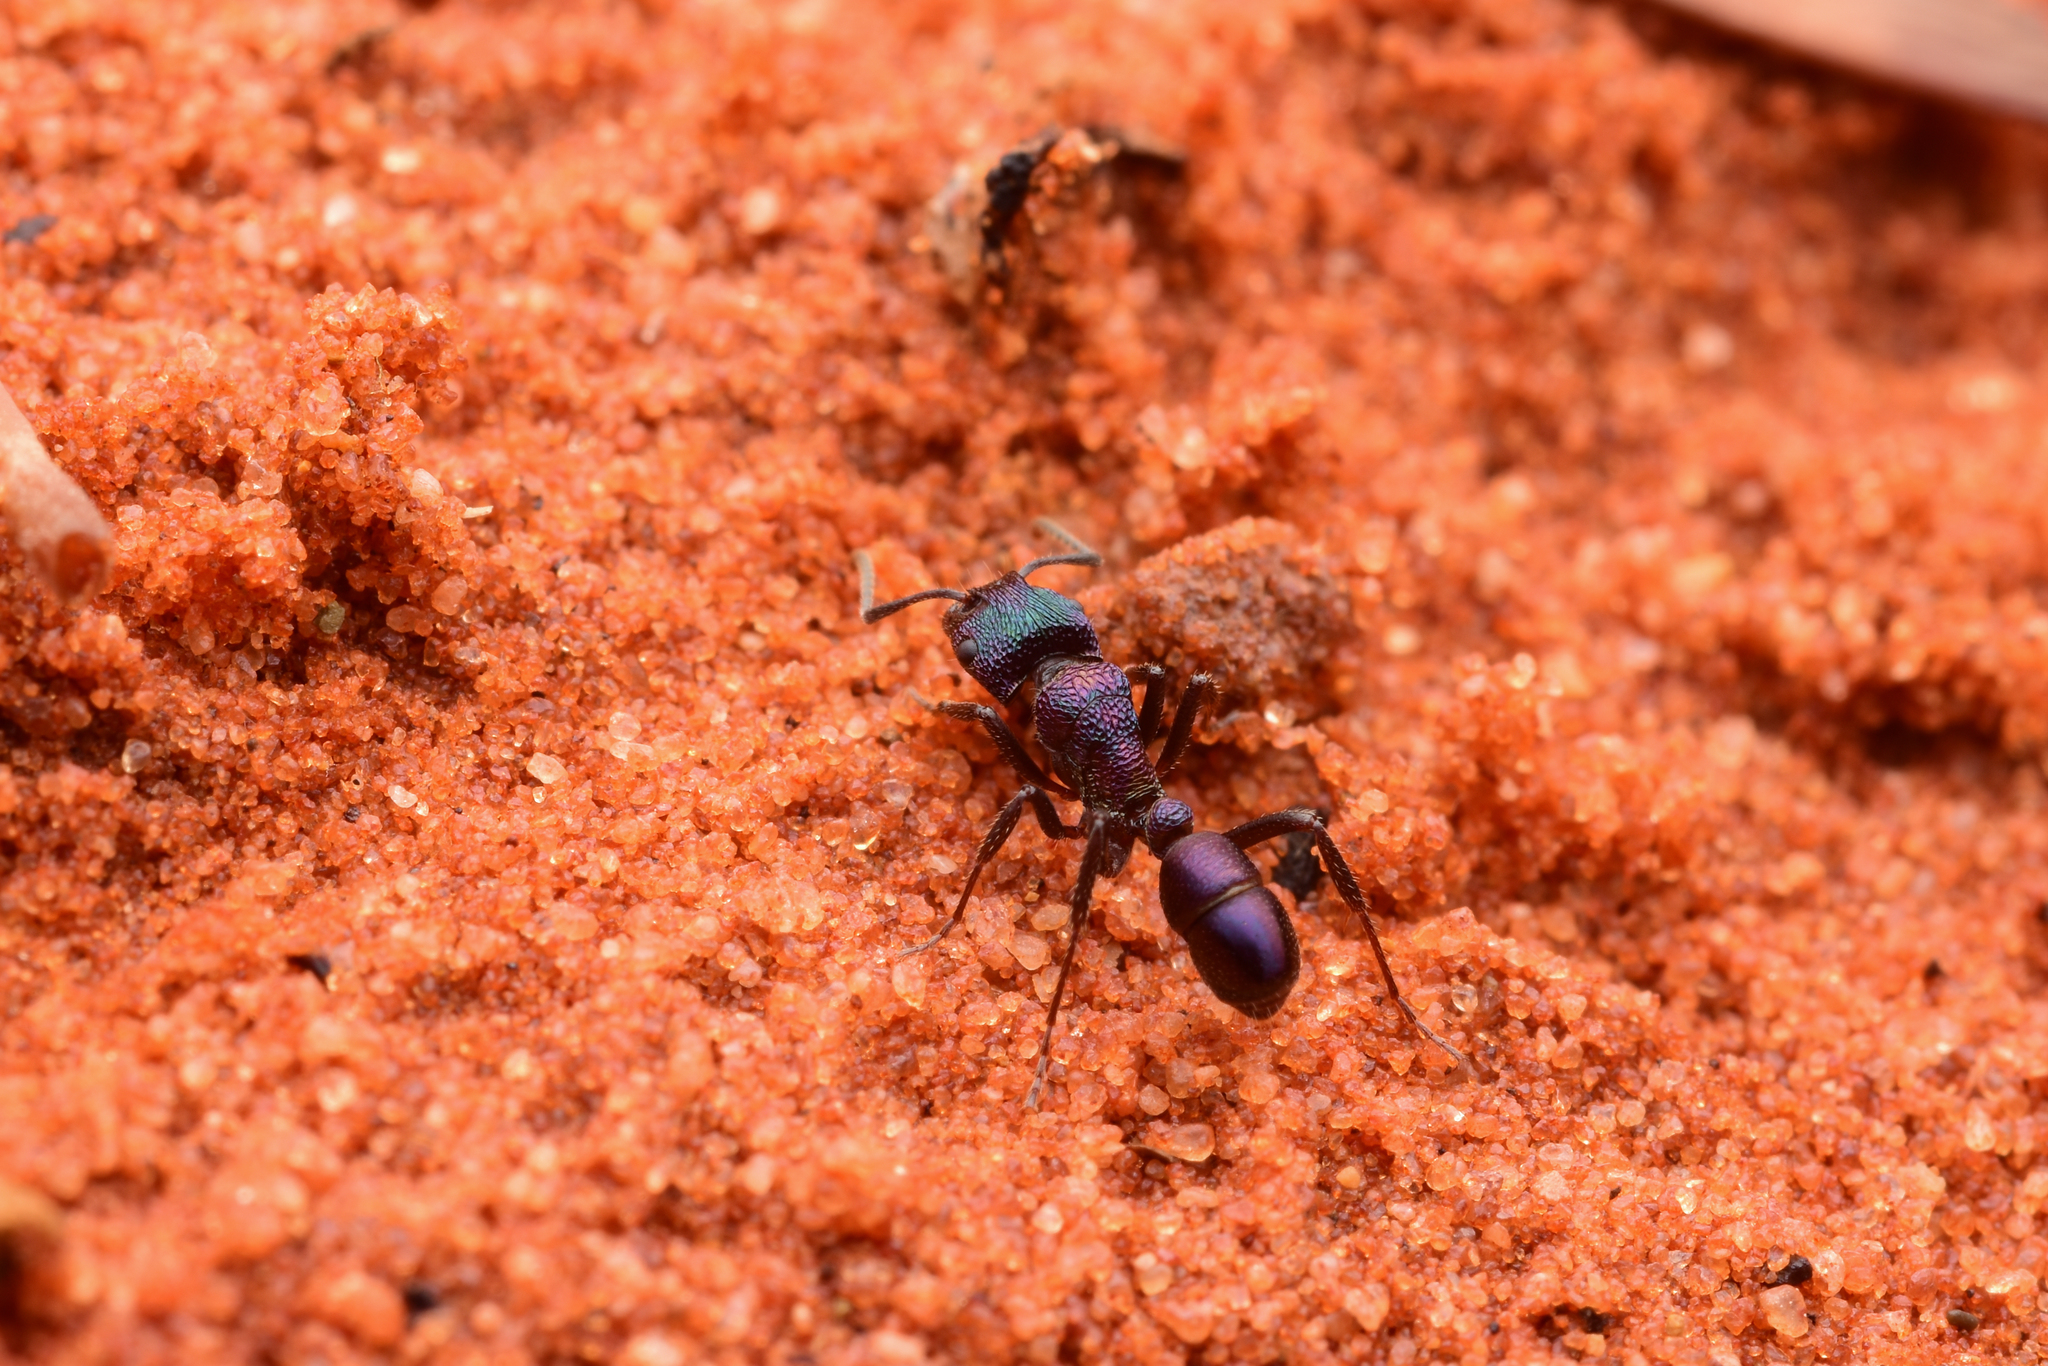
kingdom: Animalia
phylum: Arthropoda
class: Insecta
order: Hymenoptera
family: Formicidae
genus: Rhytidoponera
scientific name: Rhytidoponera metallica
